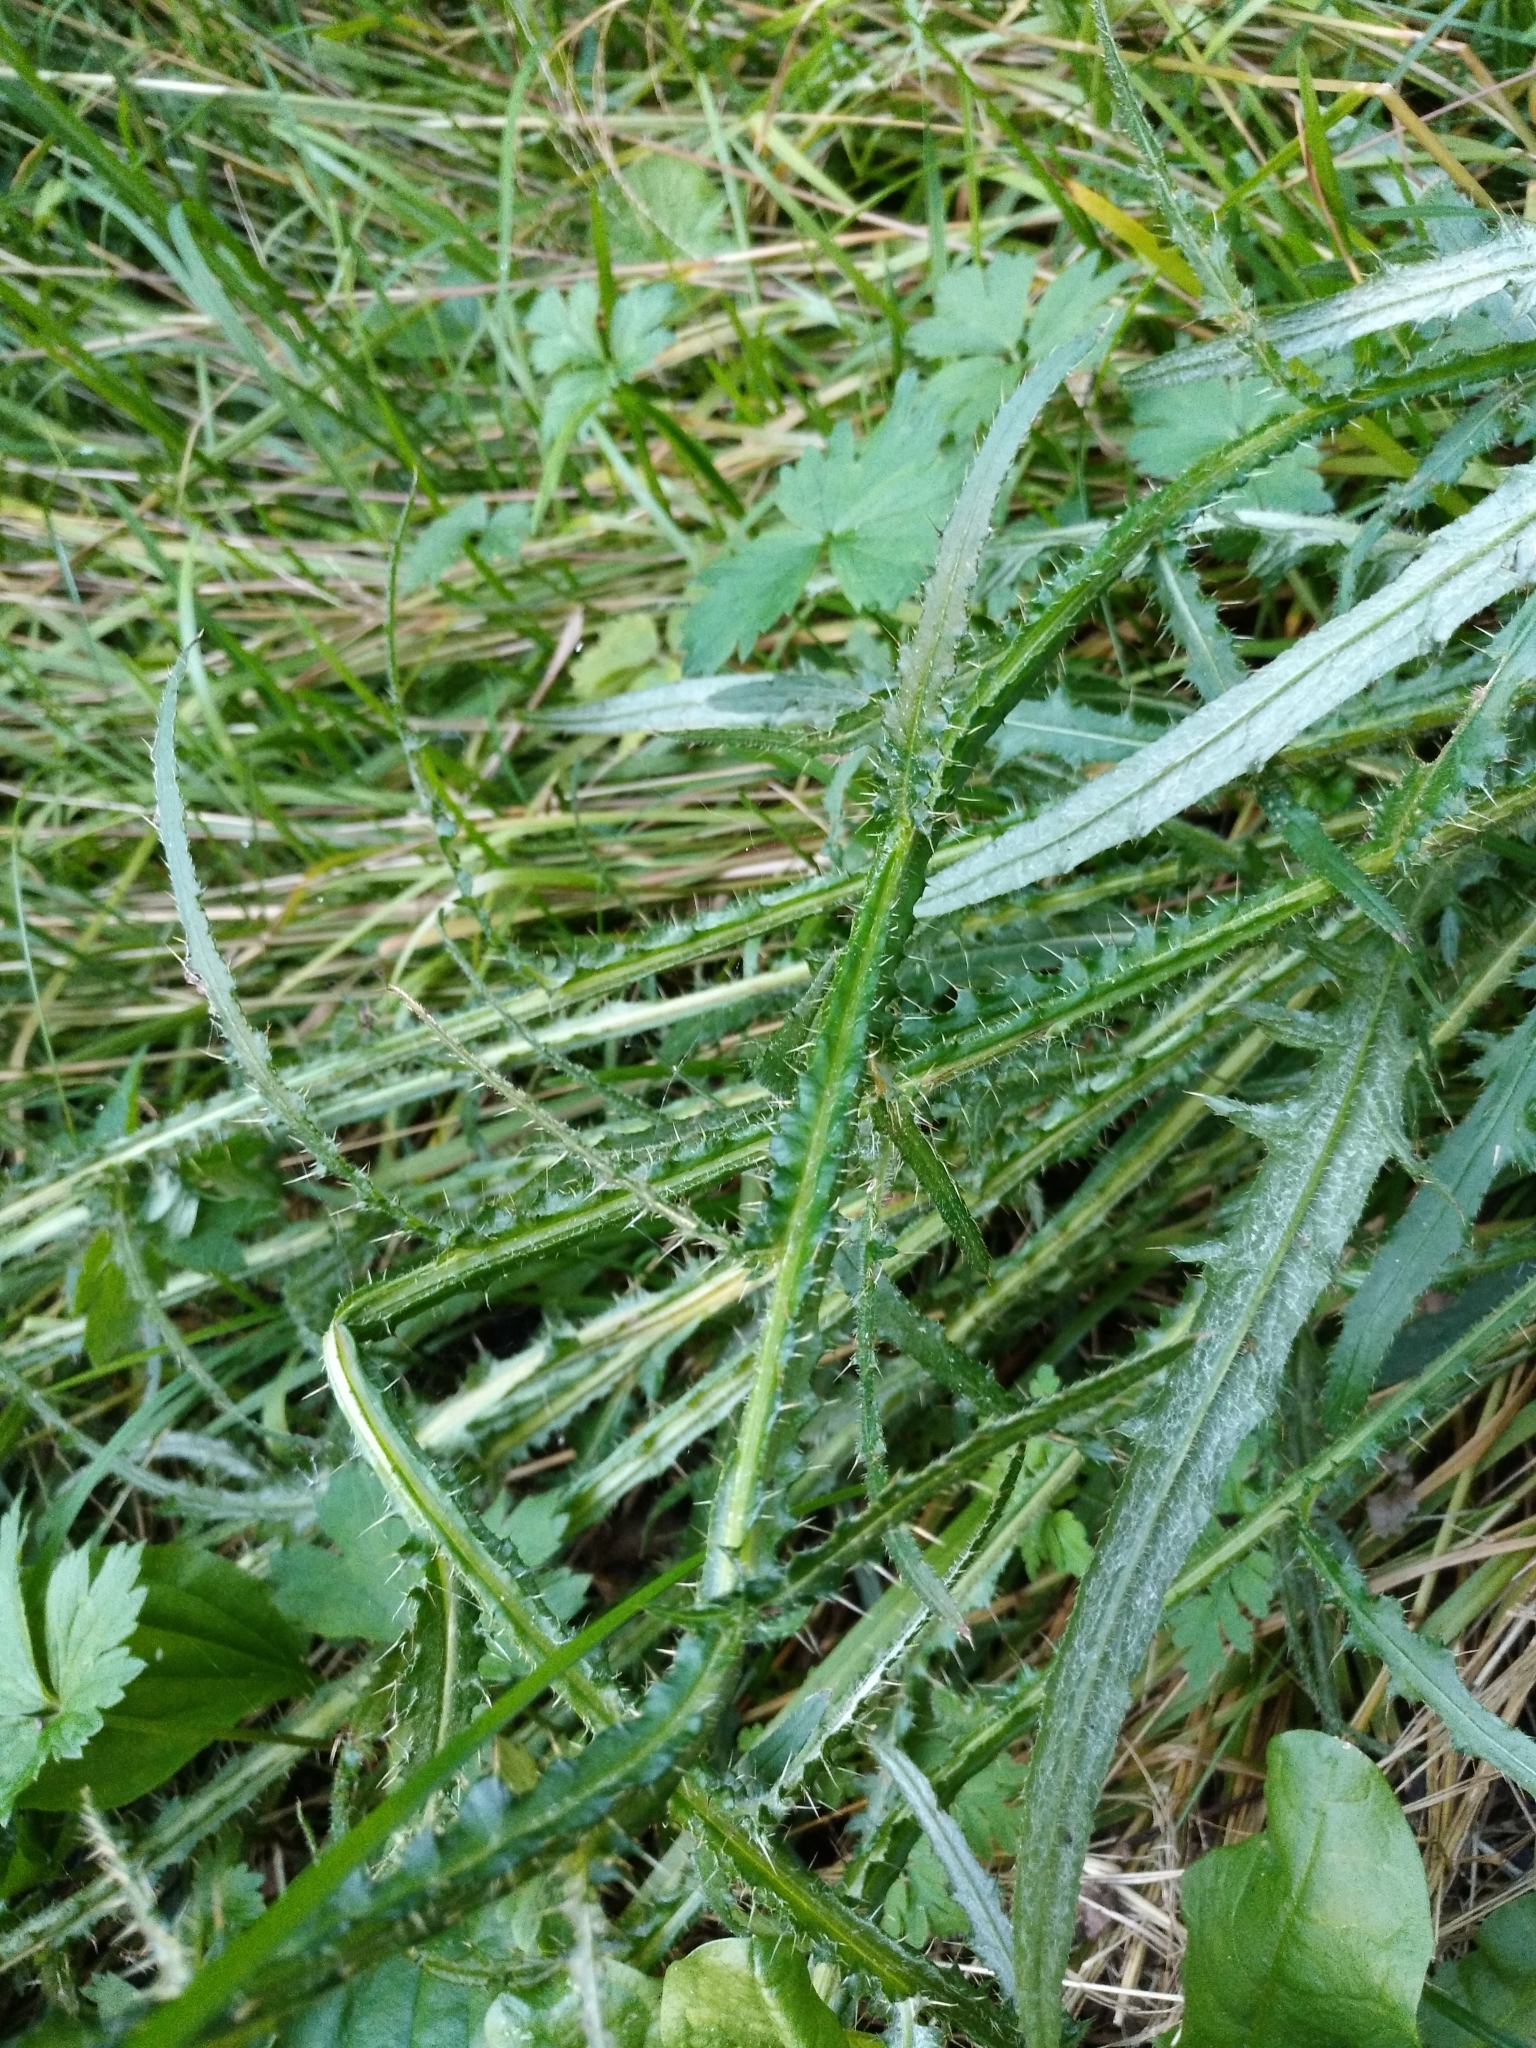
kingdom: Plantae
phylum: Tracheophyta
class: Magnoliopsida
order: Asterales
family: Asteraceae
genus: Cirsium
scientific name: Cirsium palustre
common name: Marsh thistle
